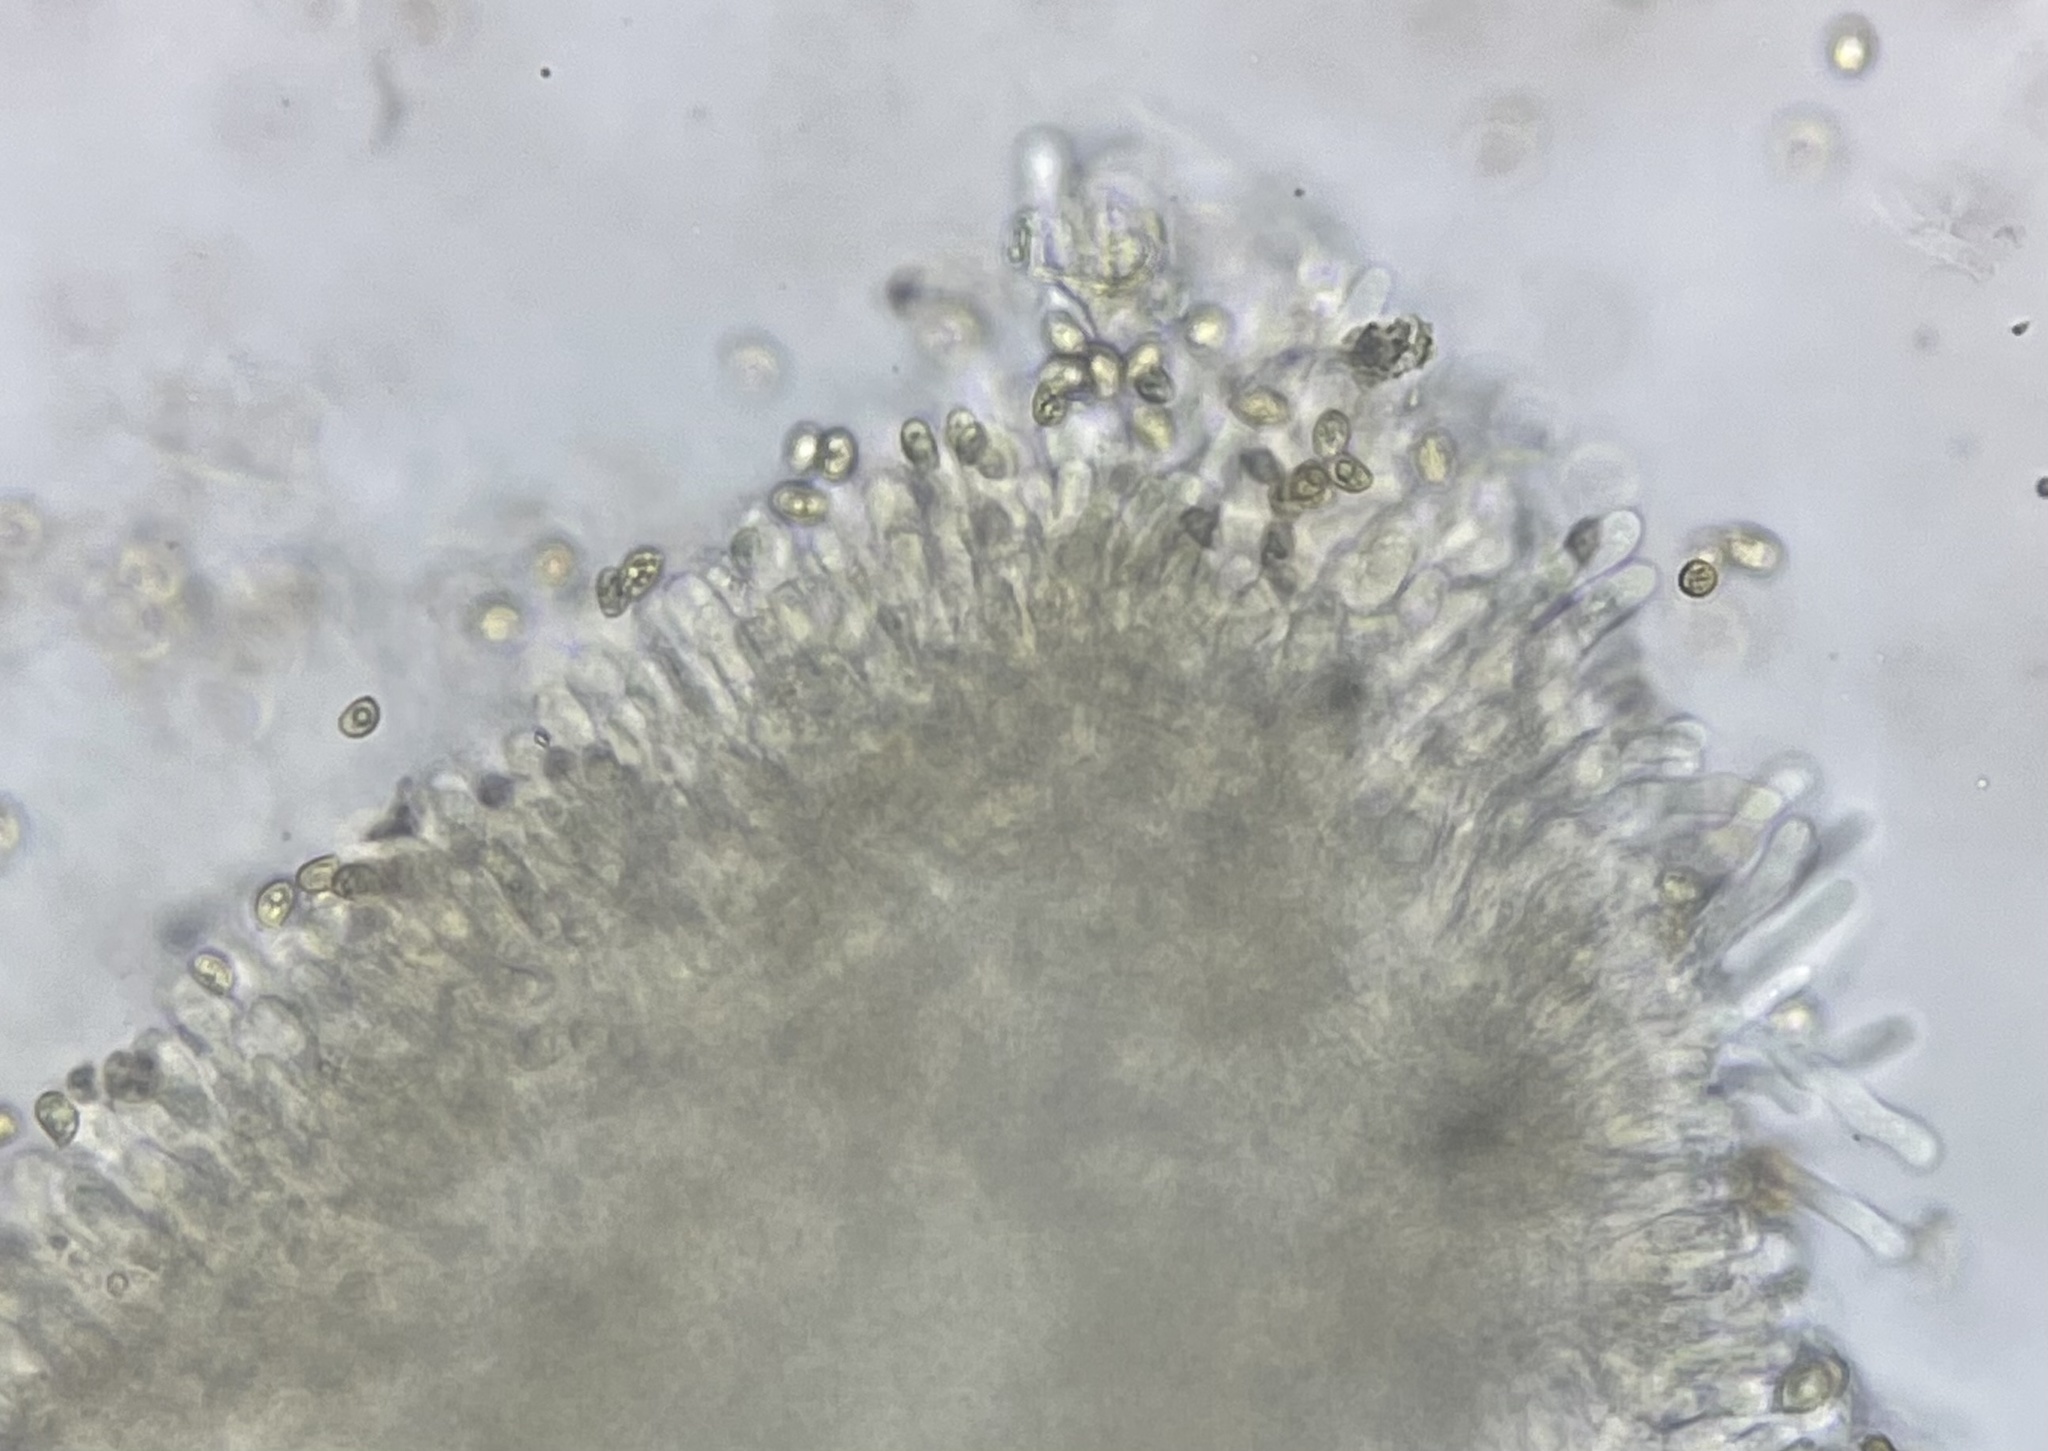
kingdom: Fungi
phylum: Basidiomycota
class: Agaricomycetes
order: Agaricales
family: Tubariaceae
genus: Tubaria
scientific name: Tubaria furfuracea
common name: Scurfy twiglet
